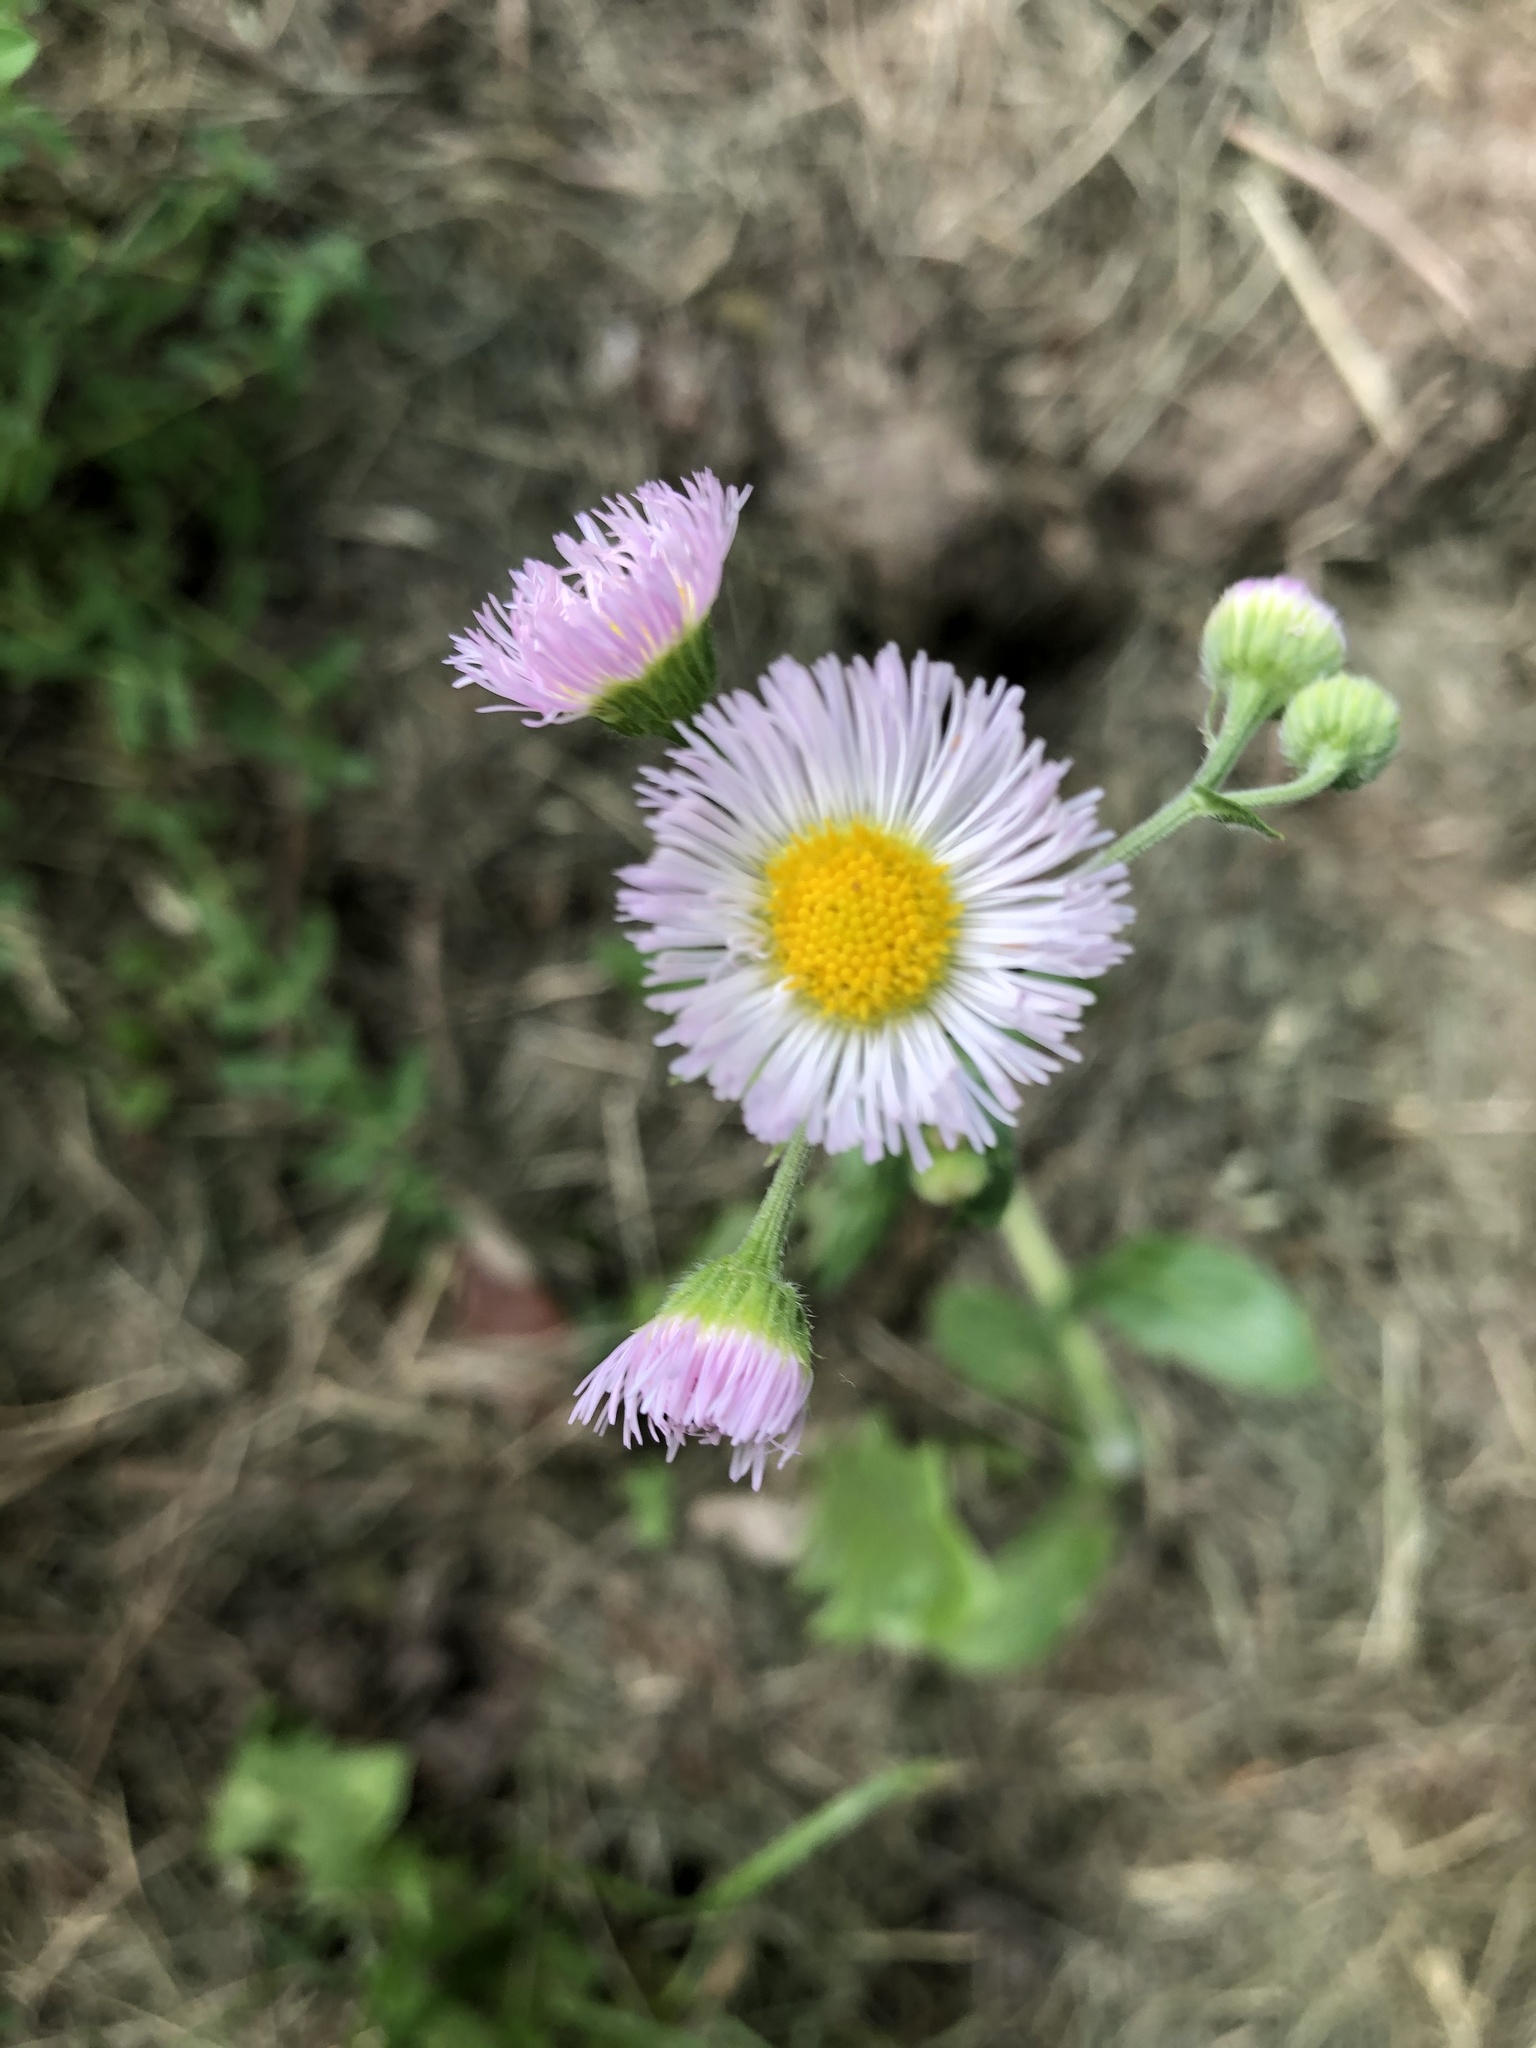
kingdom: Plantae
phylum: Tracheophyta
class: Magnoliopsida
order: Asterales
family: Asteraceae
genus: Erigeron
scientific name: Erigeron philadelphicus
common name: Robin's-plantain
